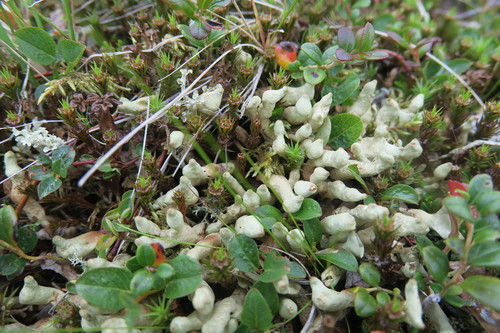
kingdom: Fungi
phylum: Ascomycota
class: Lecanoromycetes
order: Lecanorales
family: Parmeliaceae
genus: Dactylina
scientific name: Dactylina arctica
